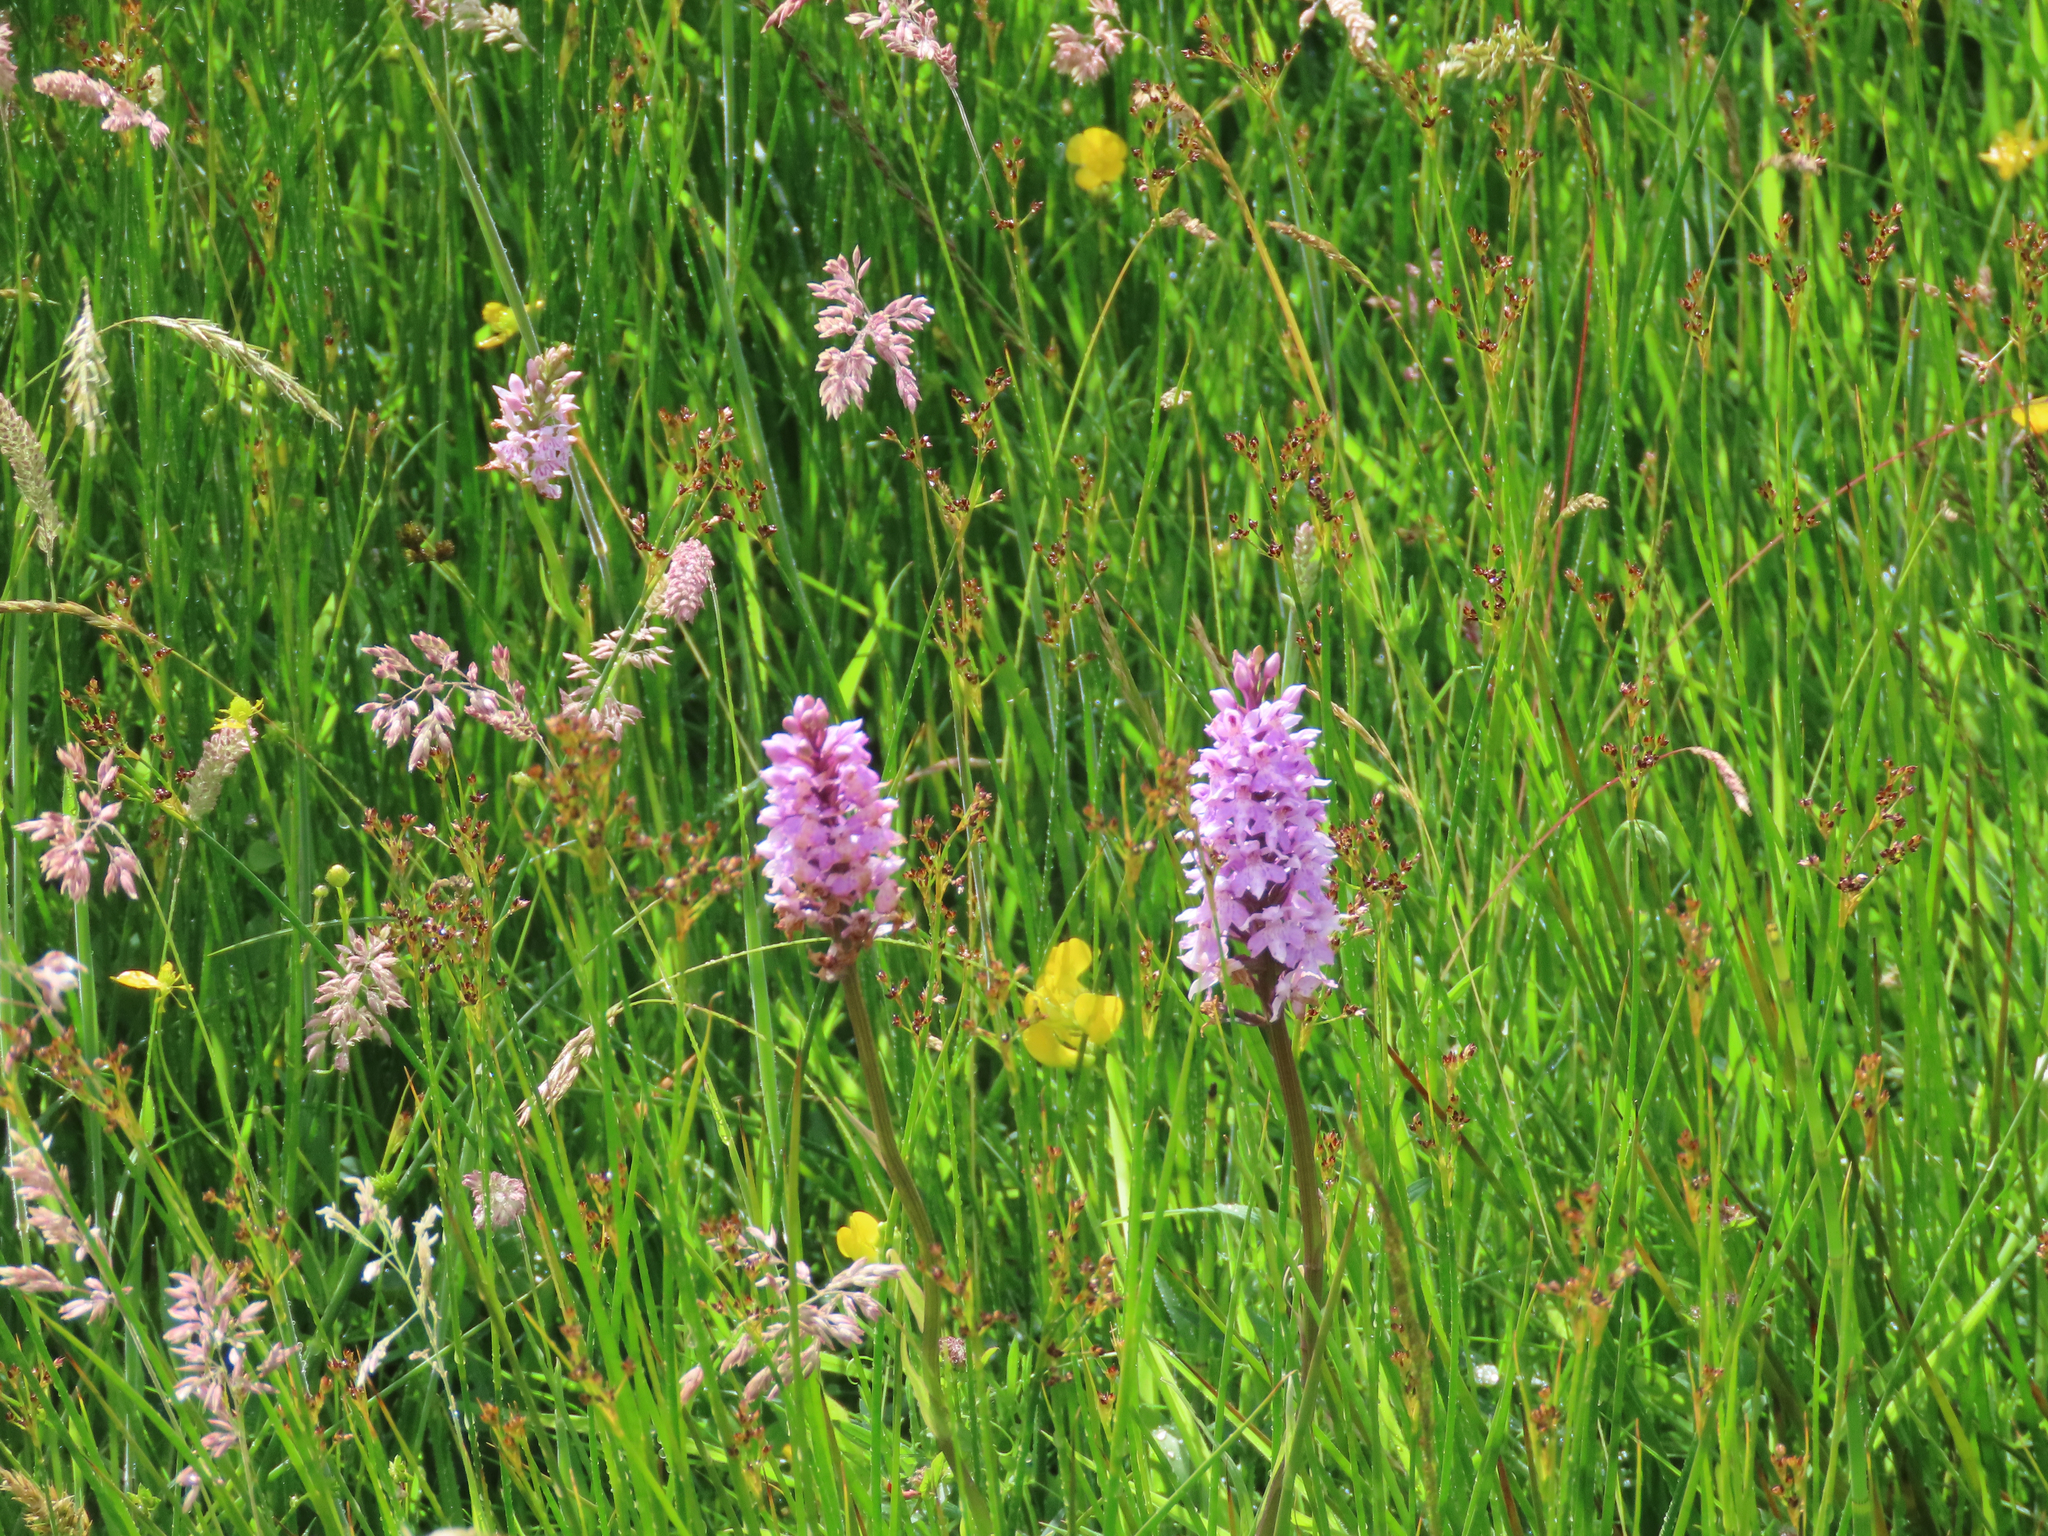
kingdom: Plantae
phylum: Tracheophyta
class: Liliopsida
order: Asparagales
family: Orchidaceae
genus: Dactylorhiza
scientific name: Dactylorhiza maculata
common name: Heath spotted-orchid
